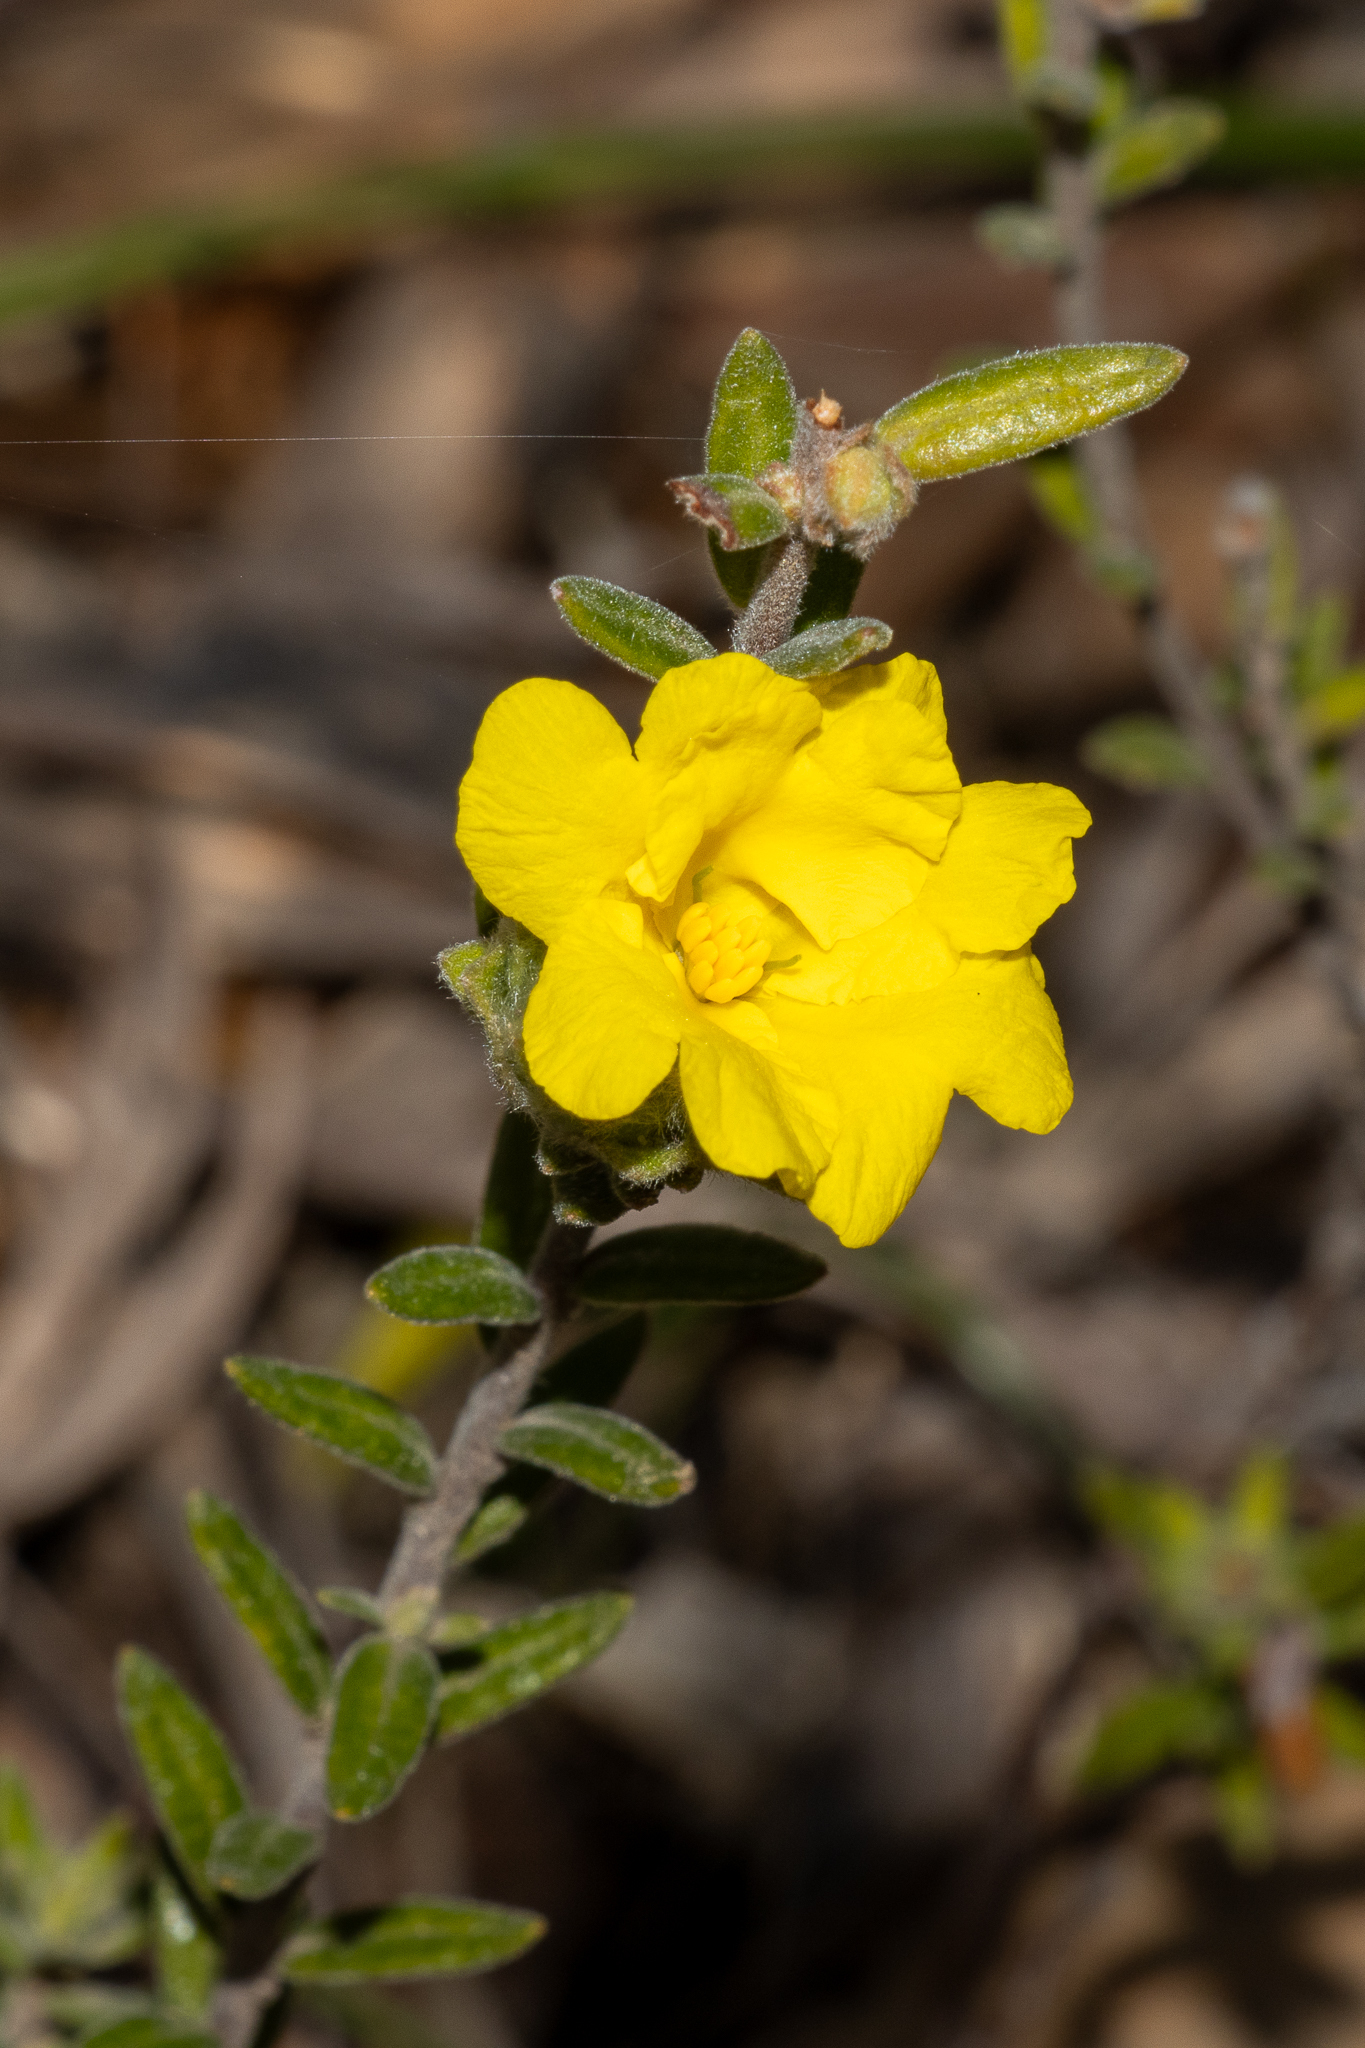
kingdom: Plantae
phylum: Tracheophyta
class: Magnoliopsida
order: Dilleniales
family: Dilleniaceae
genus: Hibbertia
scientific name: Hibbertia crinita
